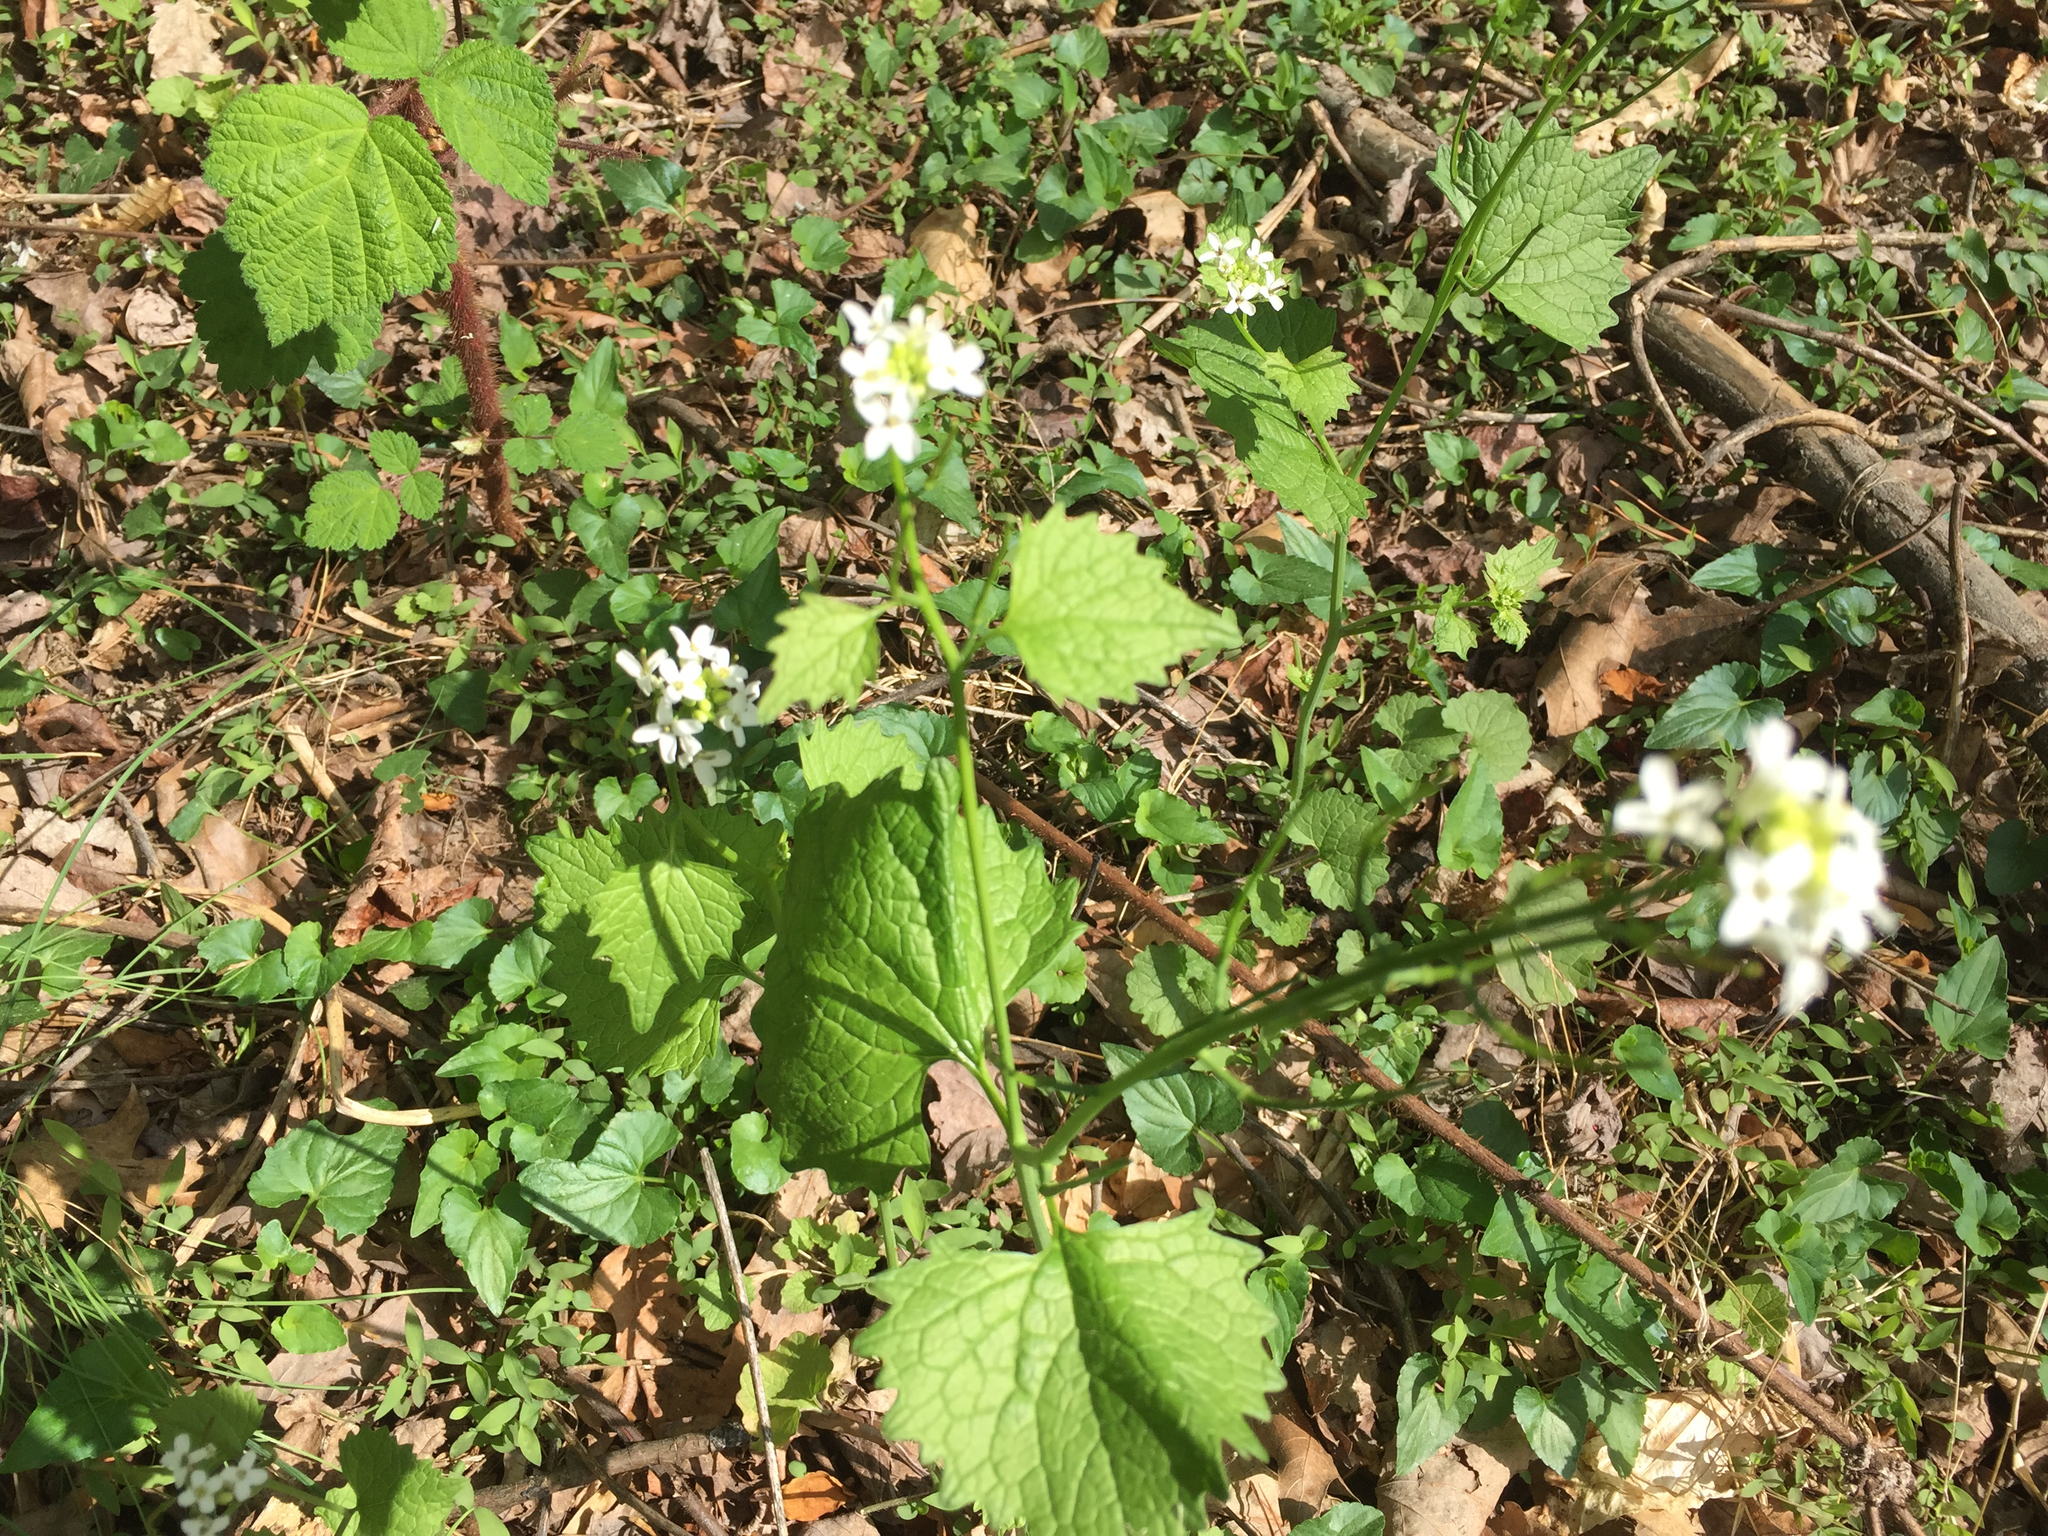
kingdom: Plantae
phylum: Tracheophyta
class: Magnoliopsida
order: Brassicales
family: Brassicaceae
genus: Alliaria
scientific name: Alliaria petiolata
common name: Garlic mustard
